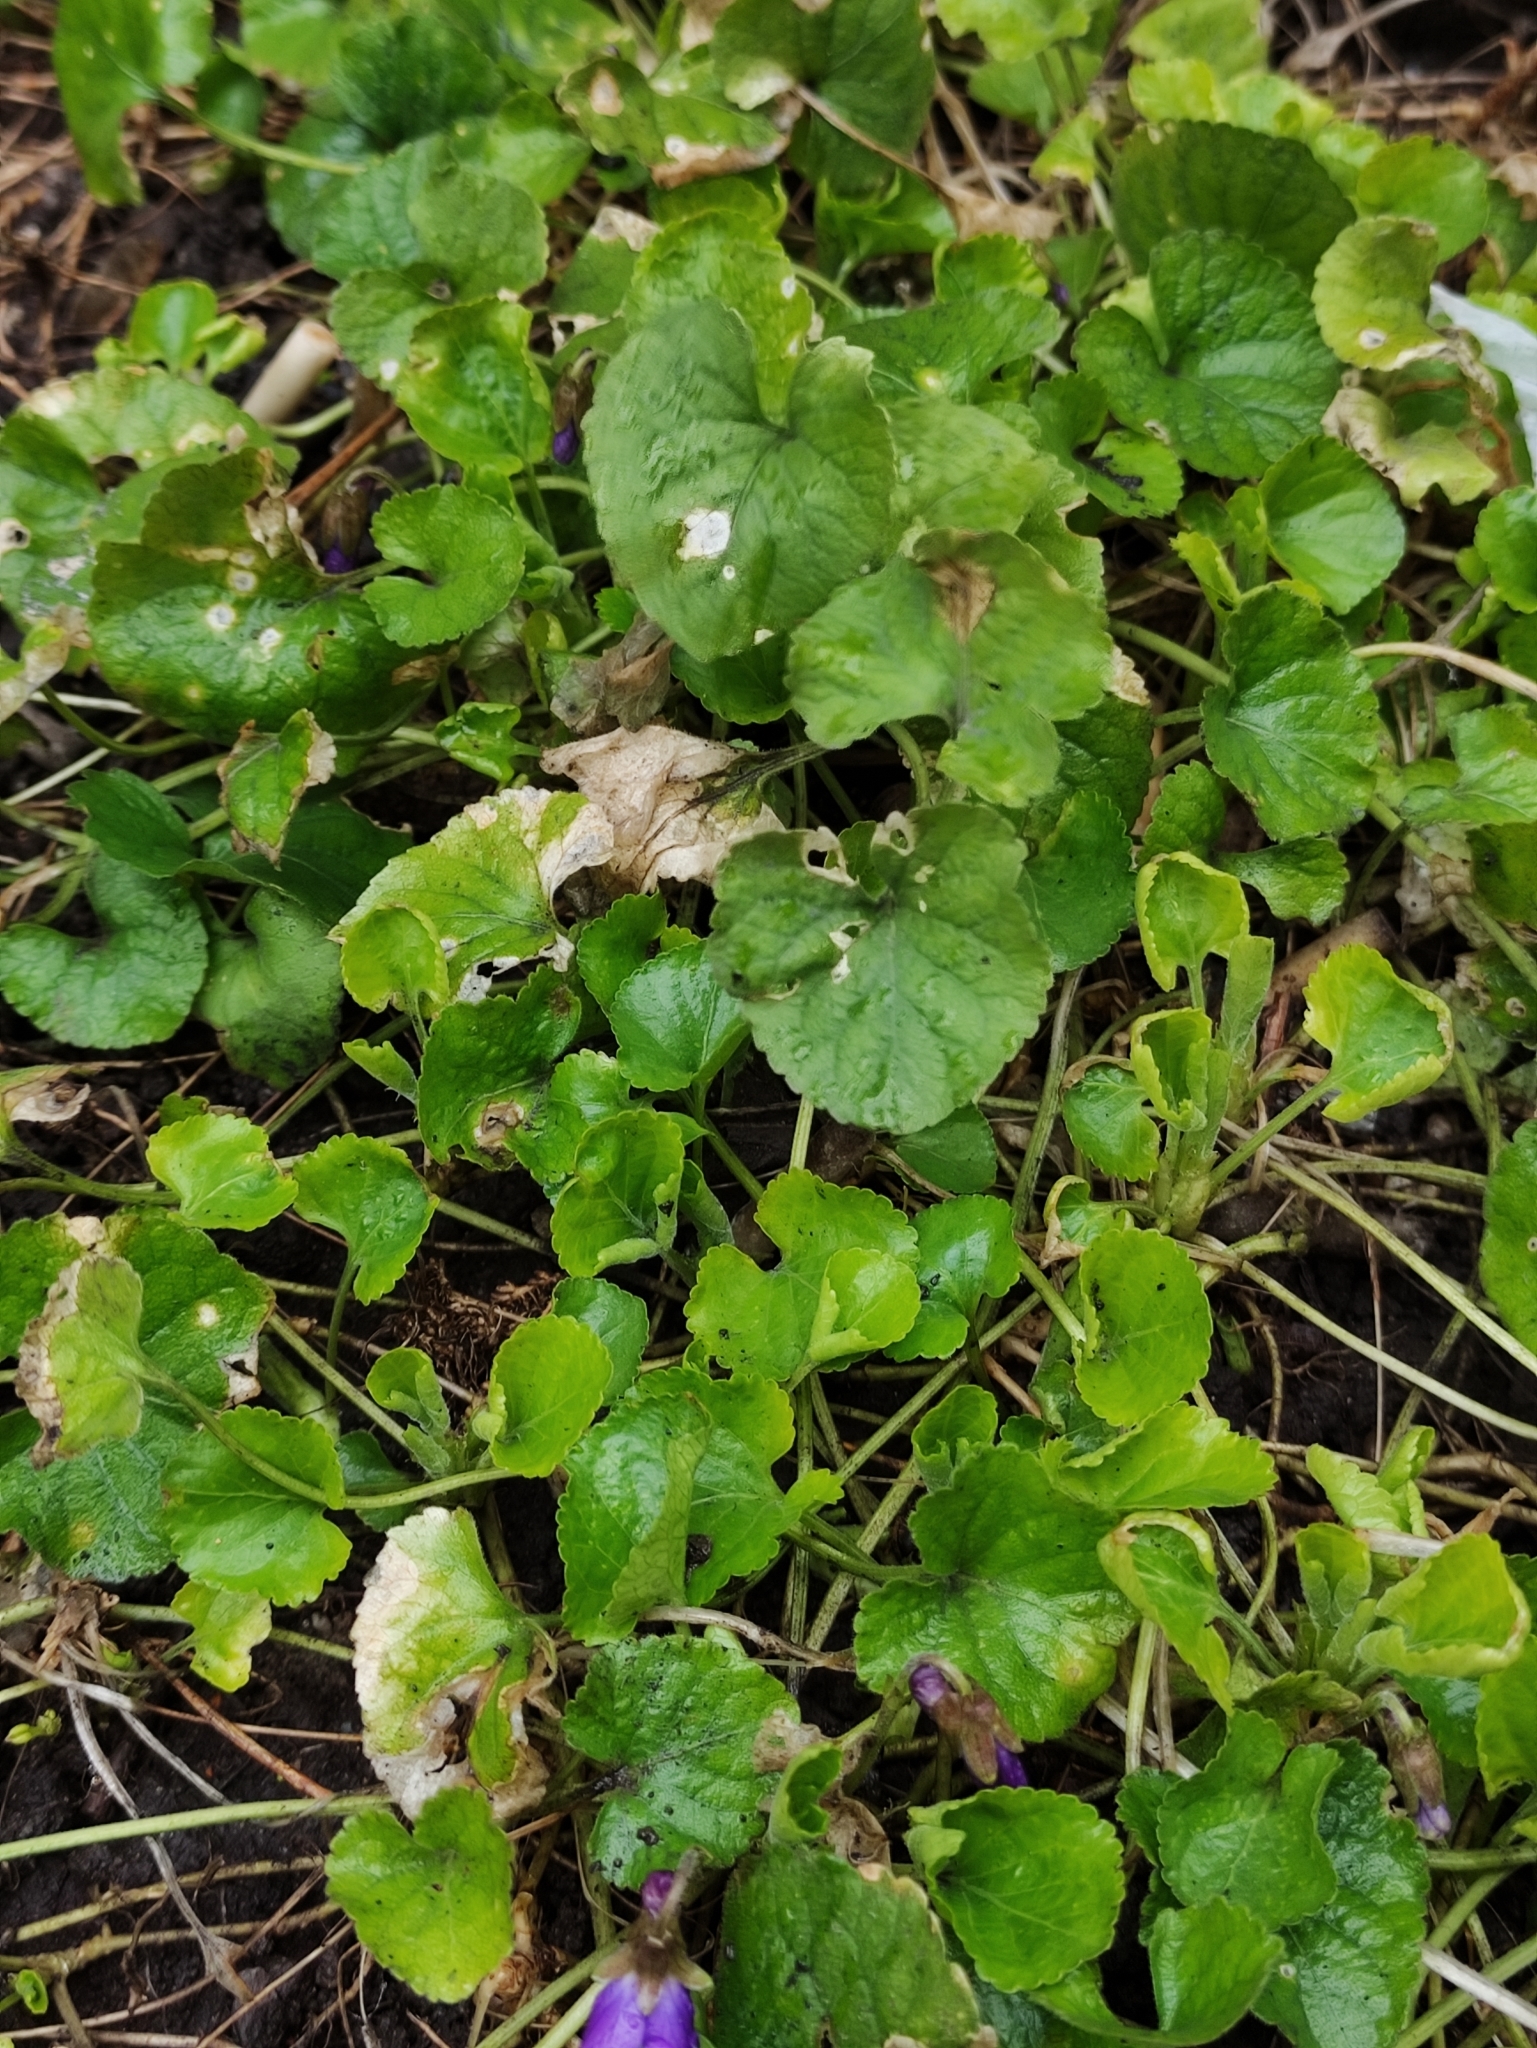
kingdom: Plantae
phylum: Tracheophyta
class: Magnoliopsida
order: Malpighiales
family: Violaceae
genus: Viola
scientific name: Viola odorata
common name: Sweet violet
